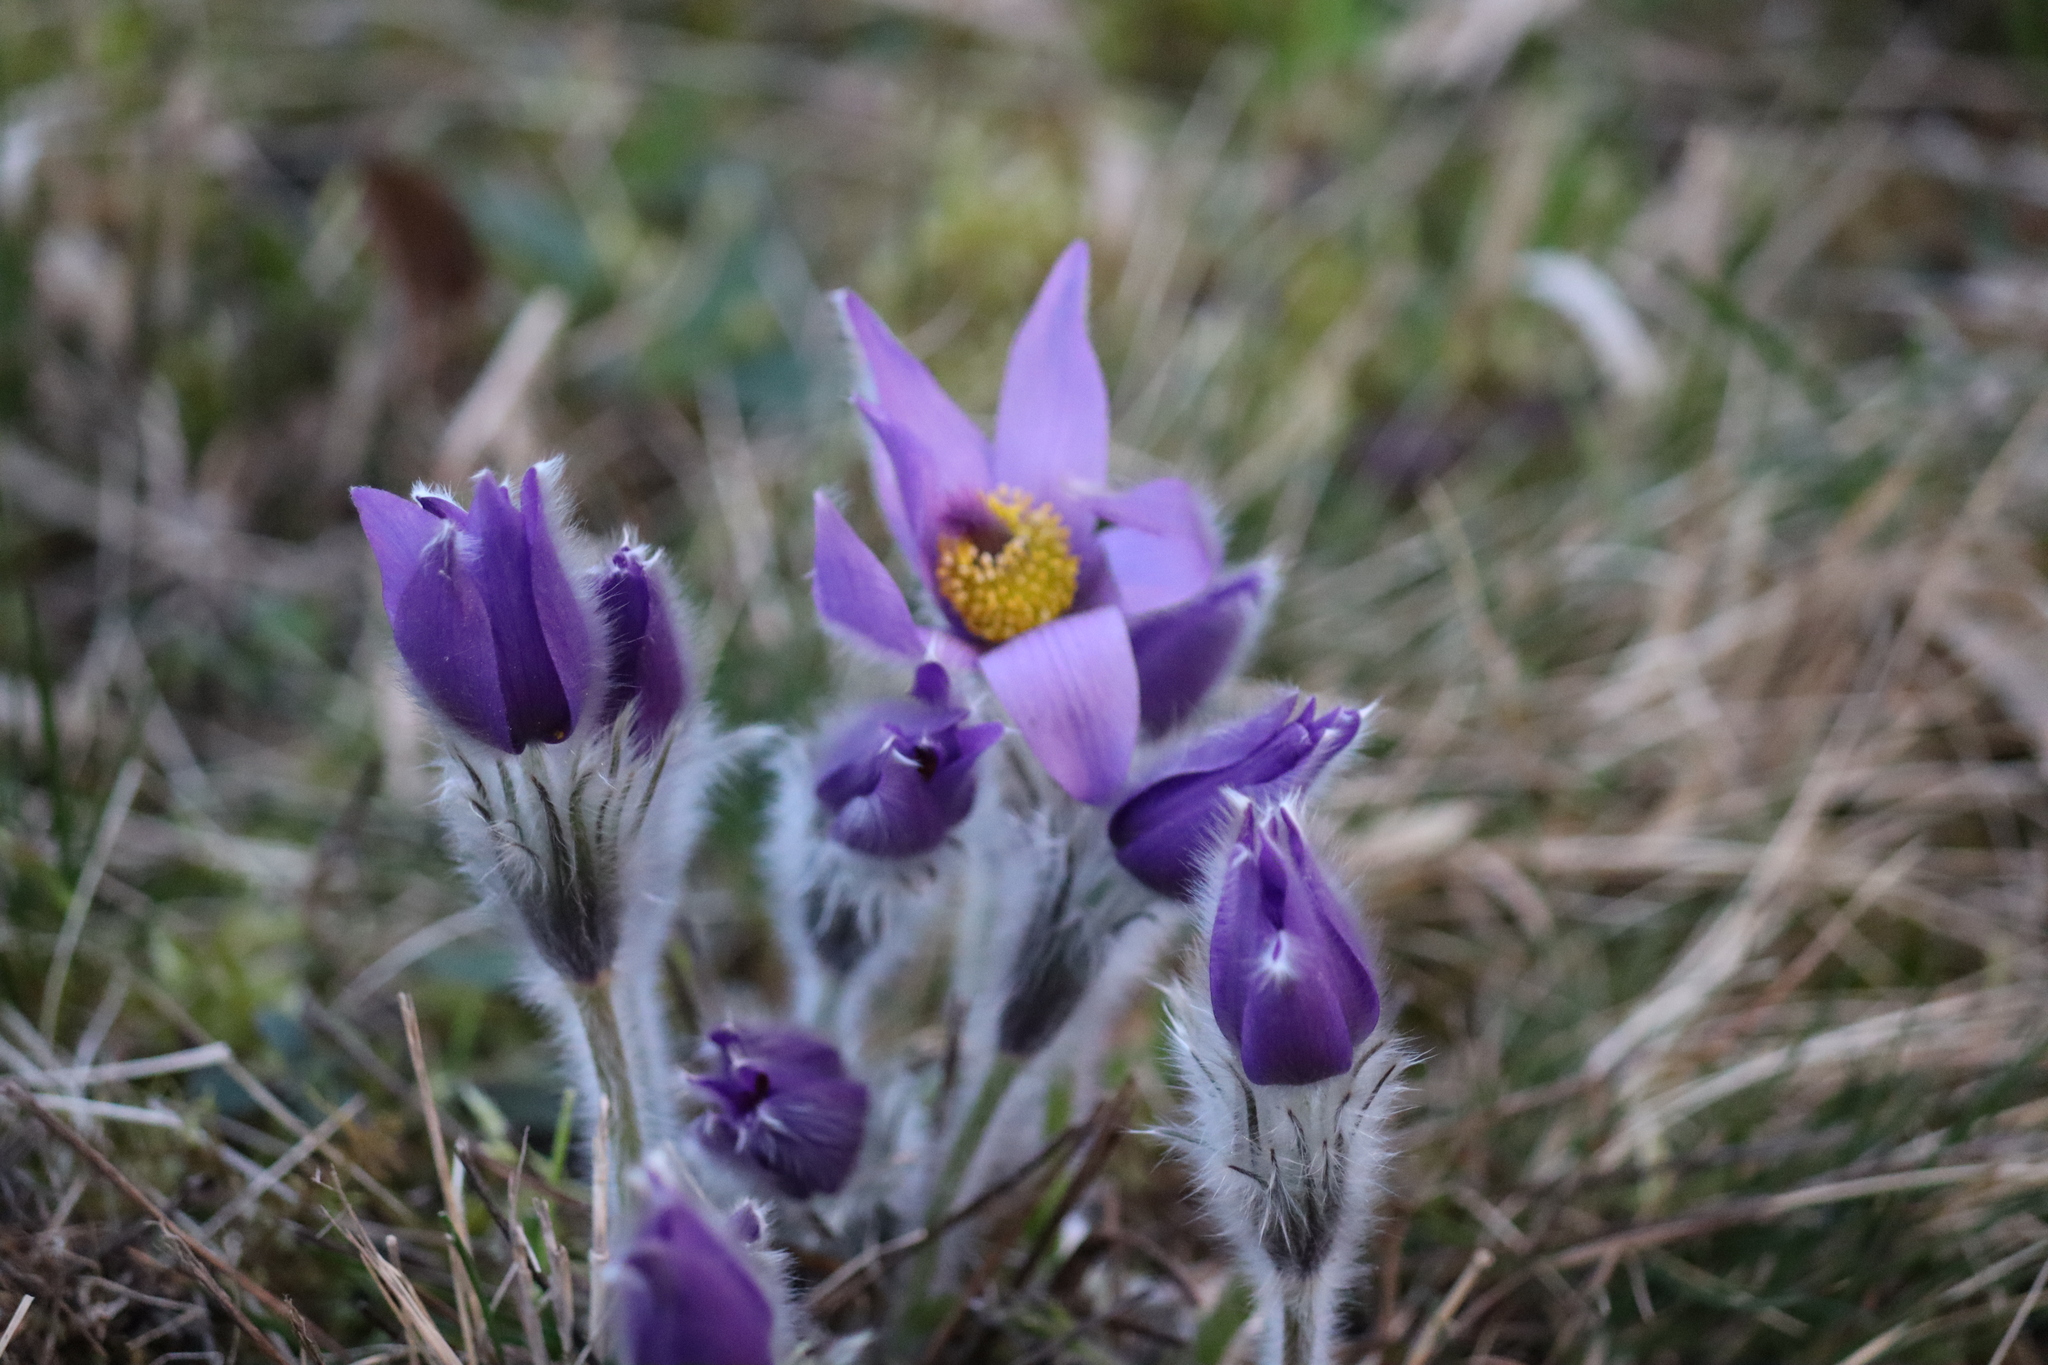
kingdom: Plantae
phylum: Tracheophyta
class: Magnoliopsida
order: Ranunculales
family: Ranunculaceae
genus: Pulsatilla
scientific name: Pulsatilla grandis
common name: Greater pasque flower
